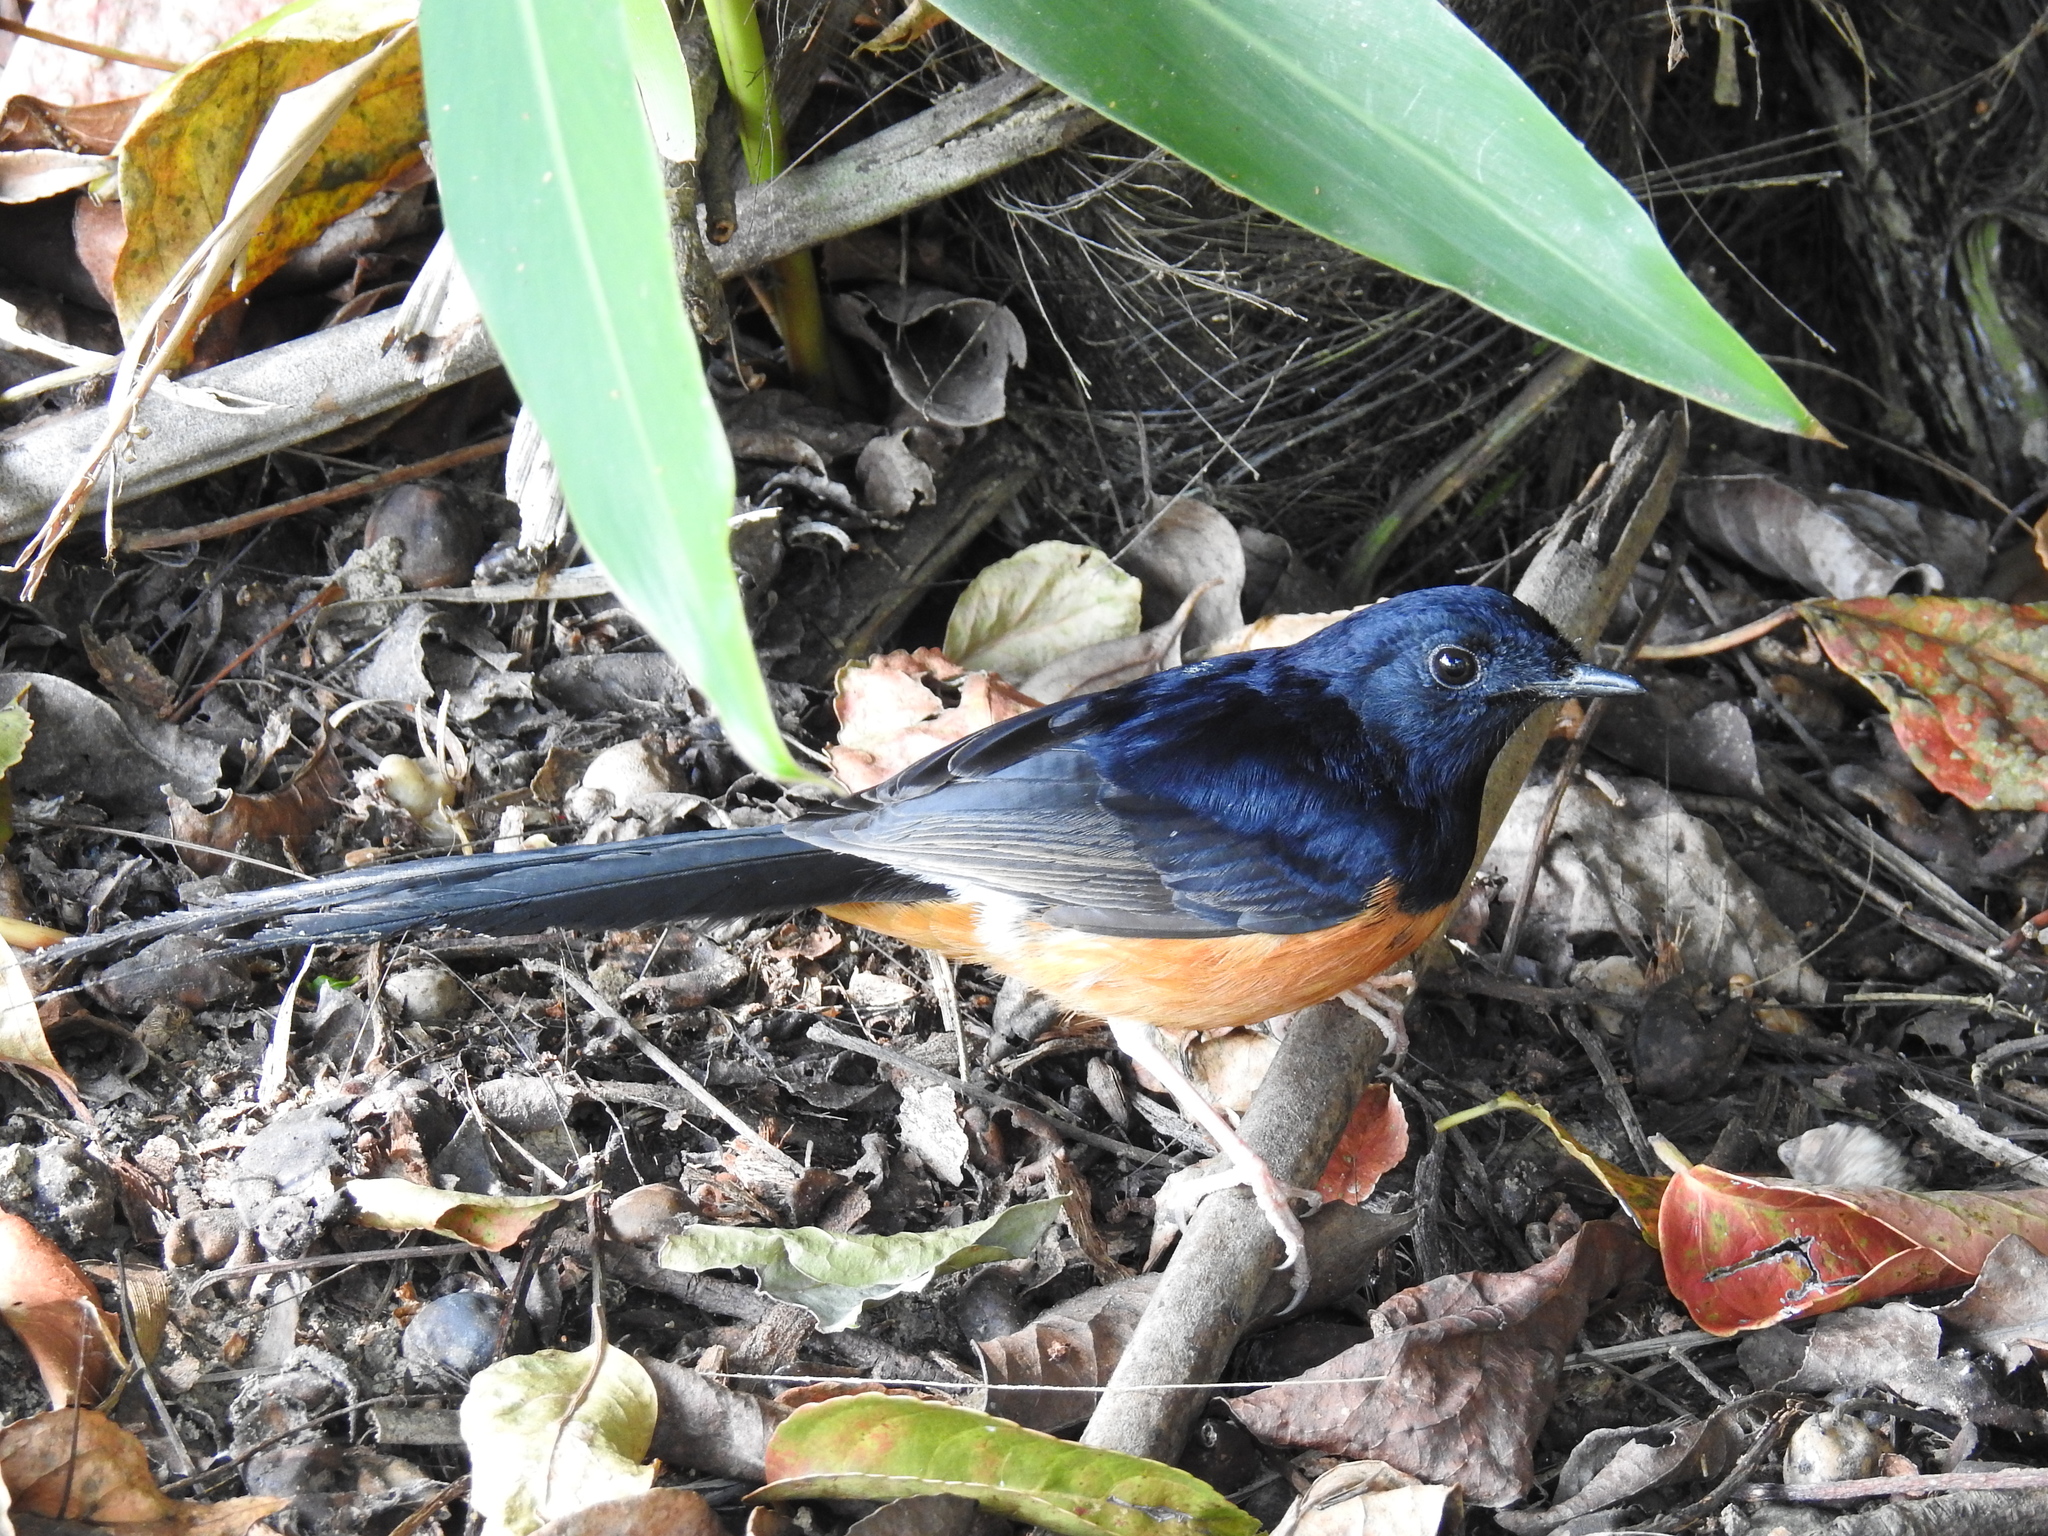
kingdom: Animalia
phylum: Chordata
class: Aves
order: Passeriformes
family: Muscicapidae
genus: Copsychus
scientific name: Copsychus malabaricus
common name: White-rumped shama
